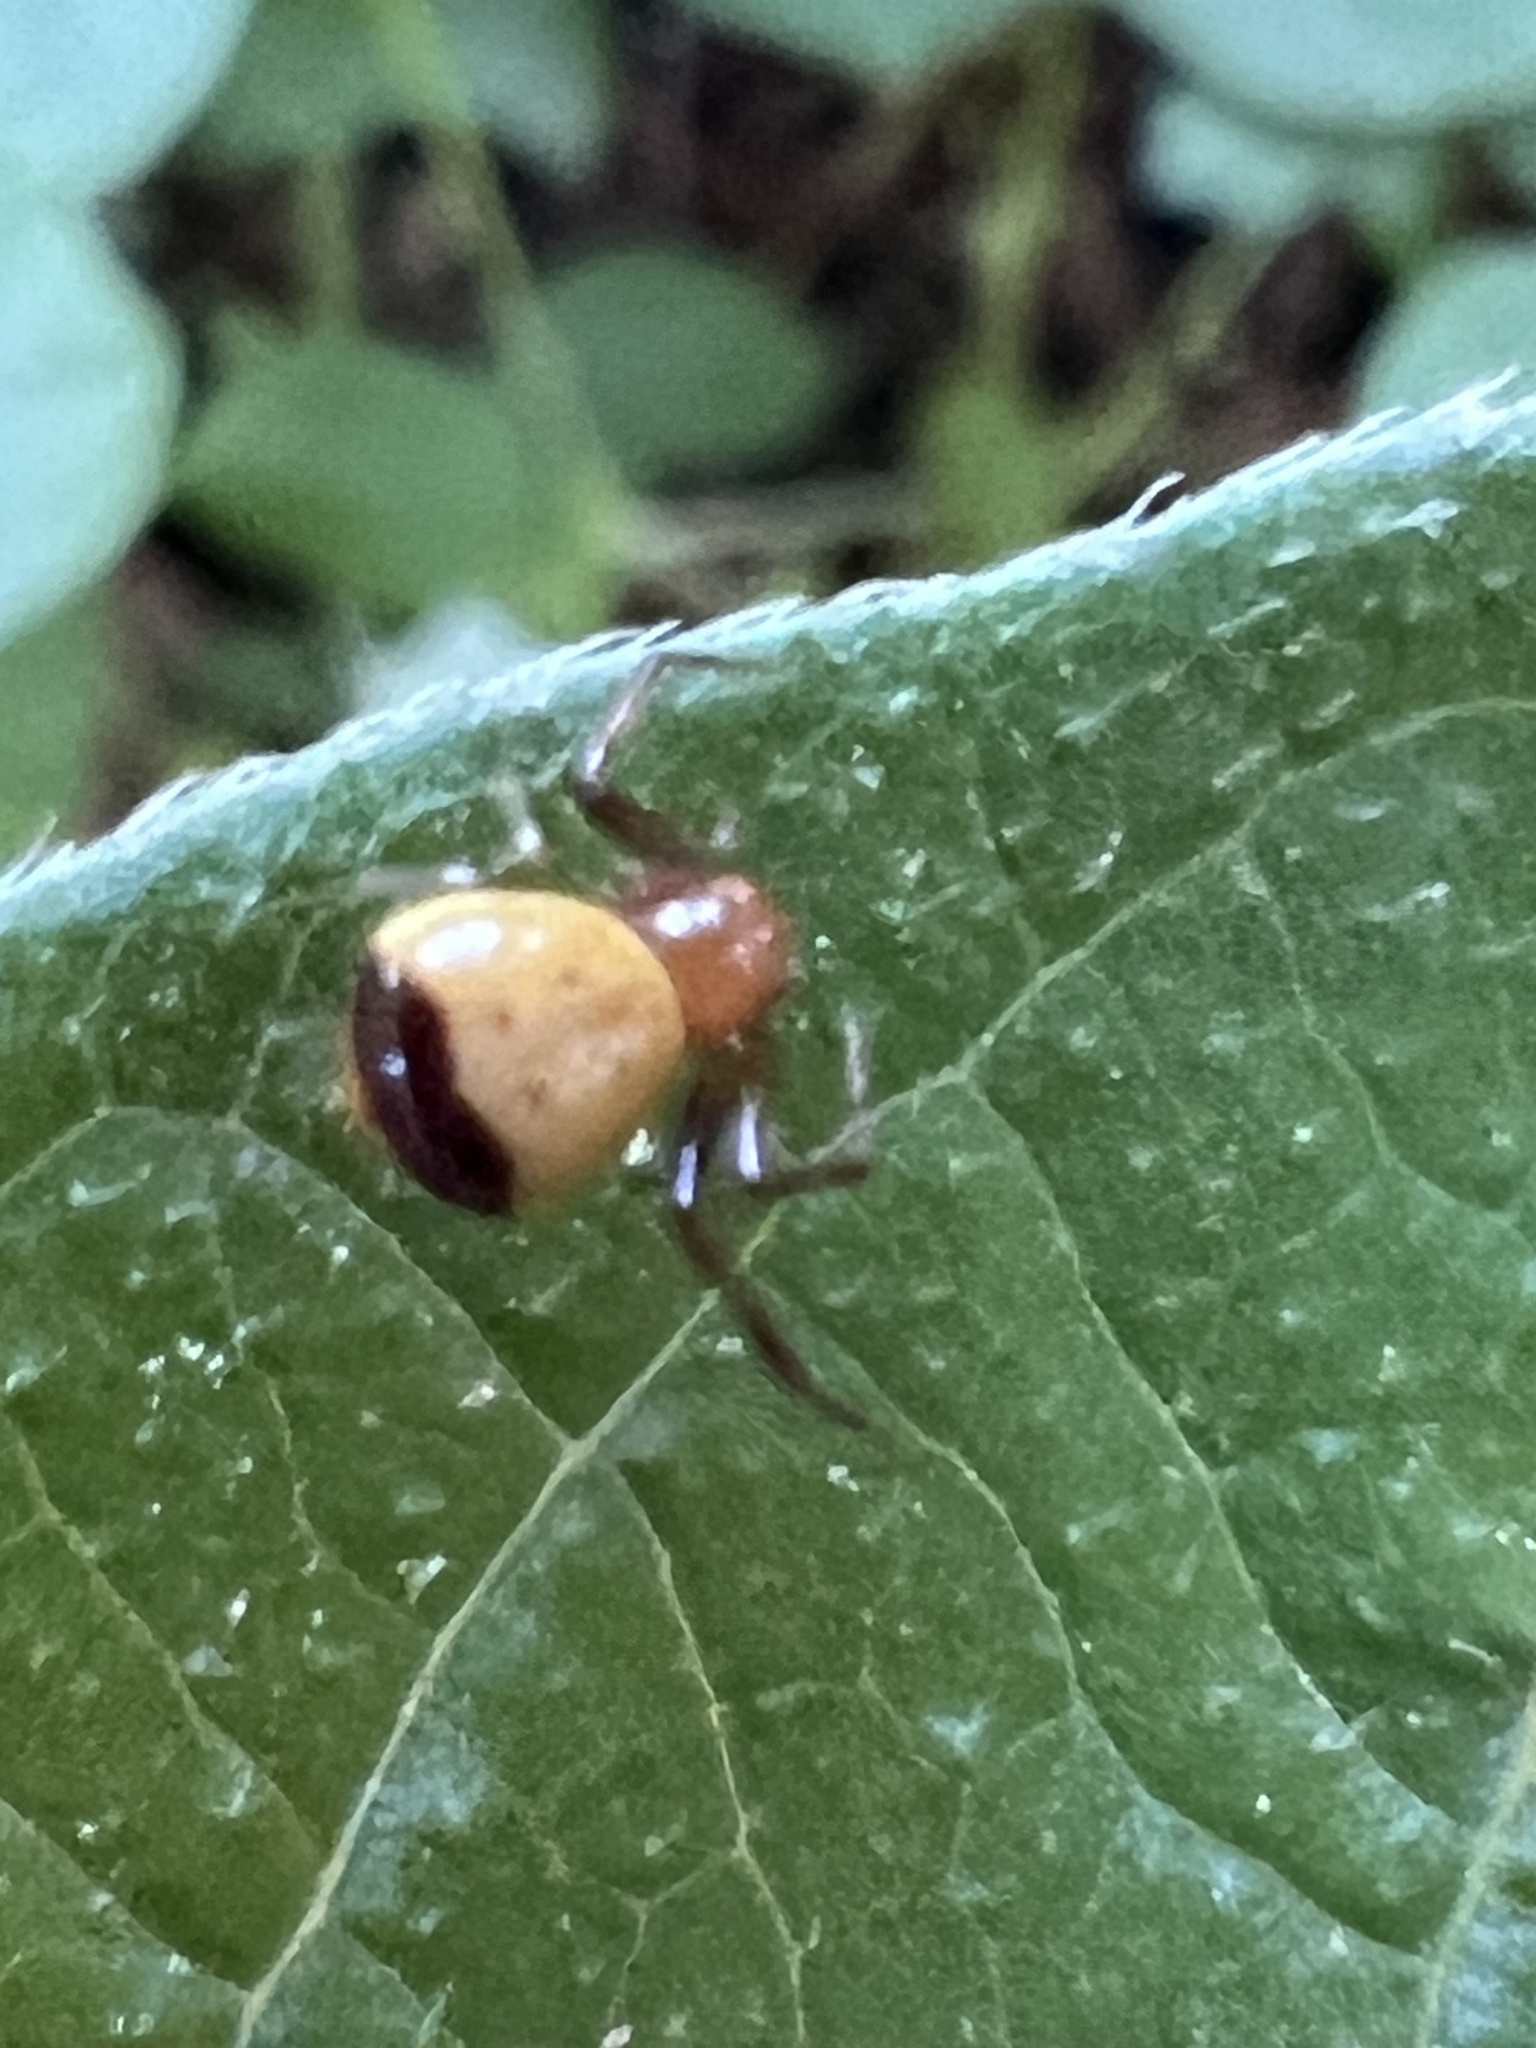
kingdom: Animalia
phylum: Arthropoda
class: Arachnida
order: Araneae
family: Thomisidae
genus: Synema
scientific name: Synema parvulum
